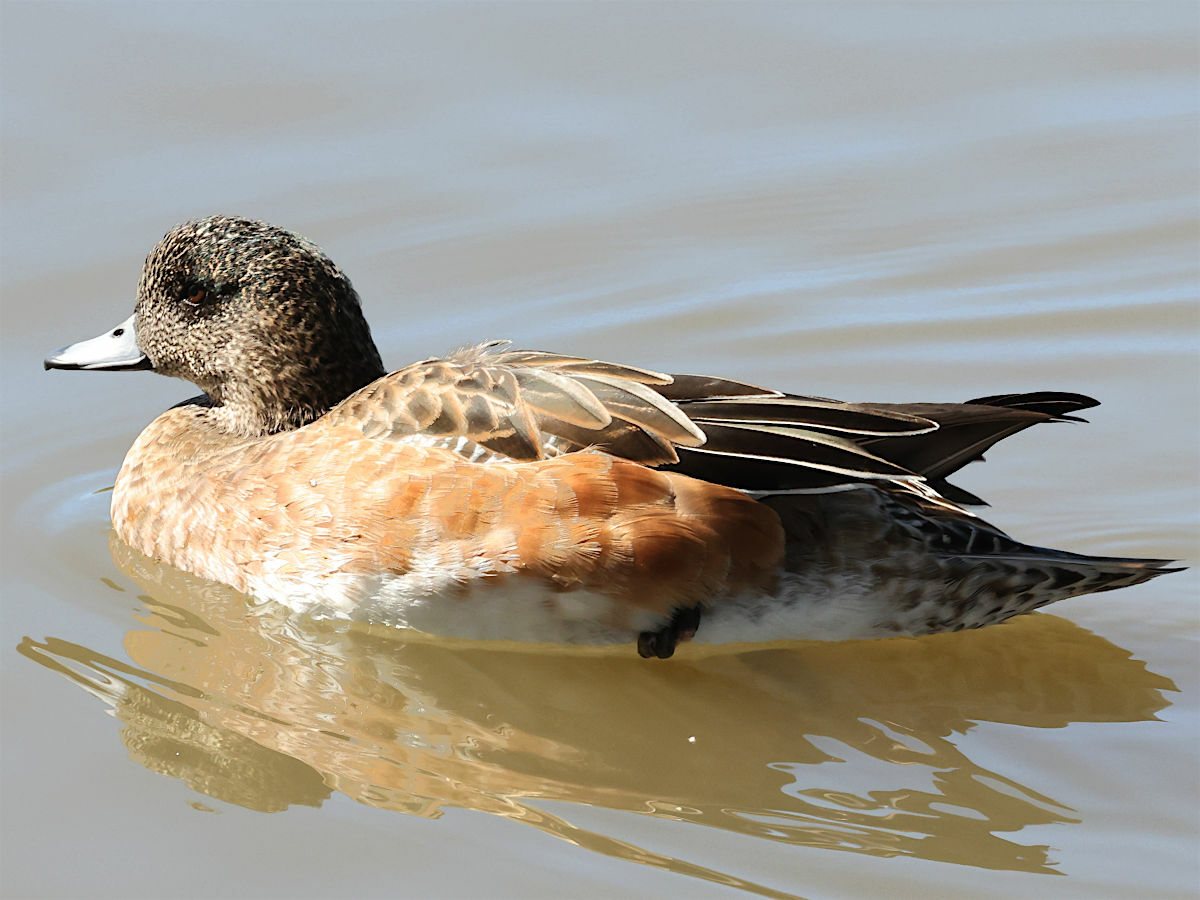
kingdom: Animalia
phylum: Chordata
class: Aves
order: Anseriformes
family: Anatidae
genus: Mareca
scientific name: Mareca americana
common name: American wigeon
